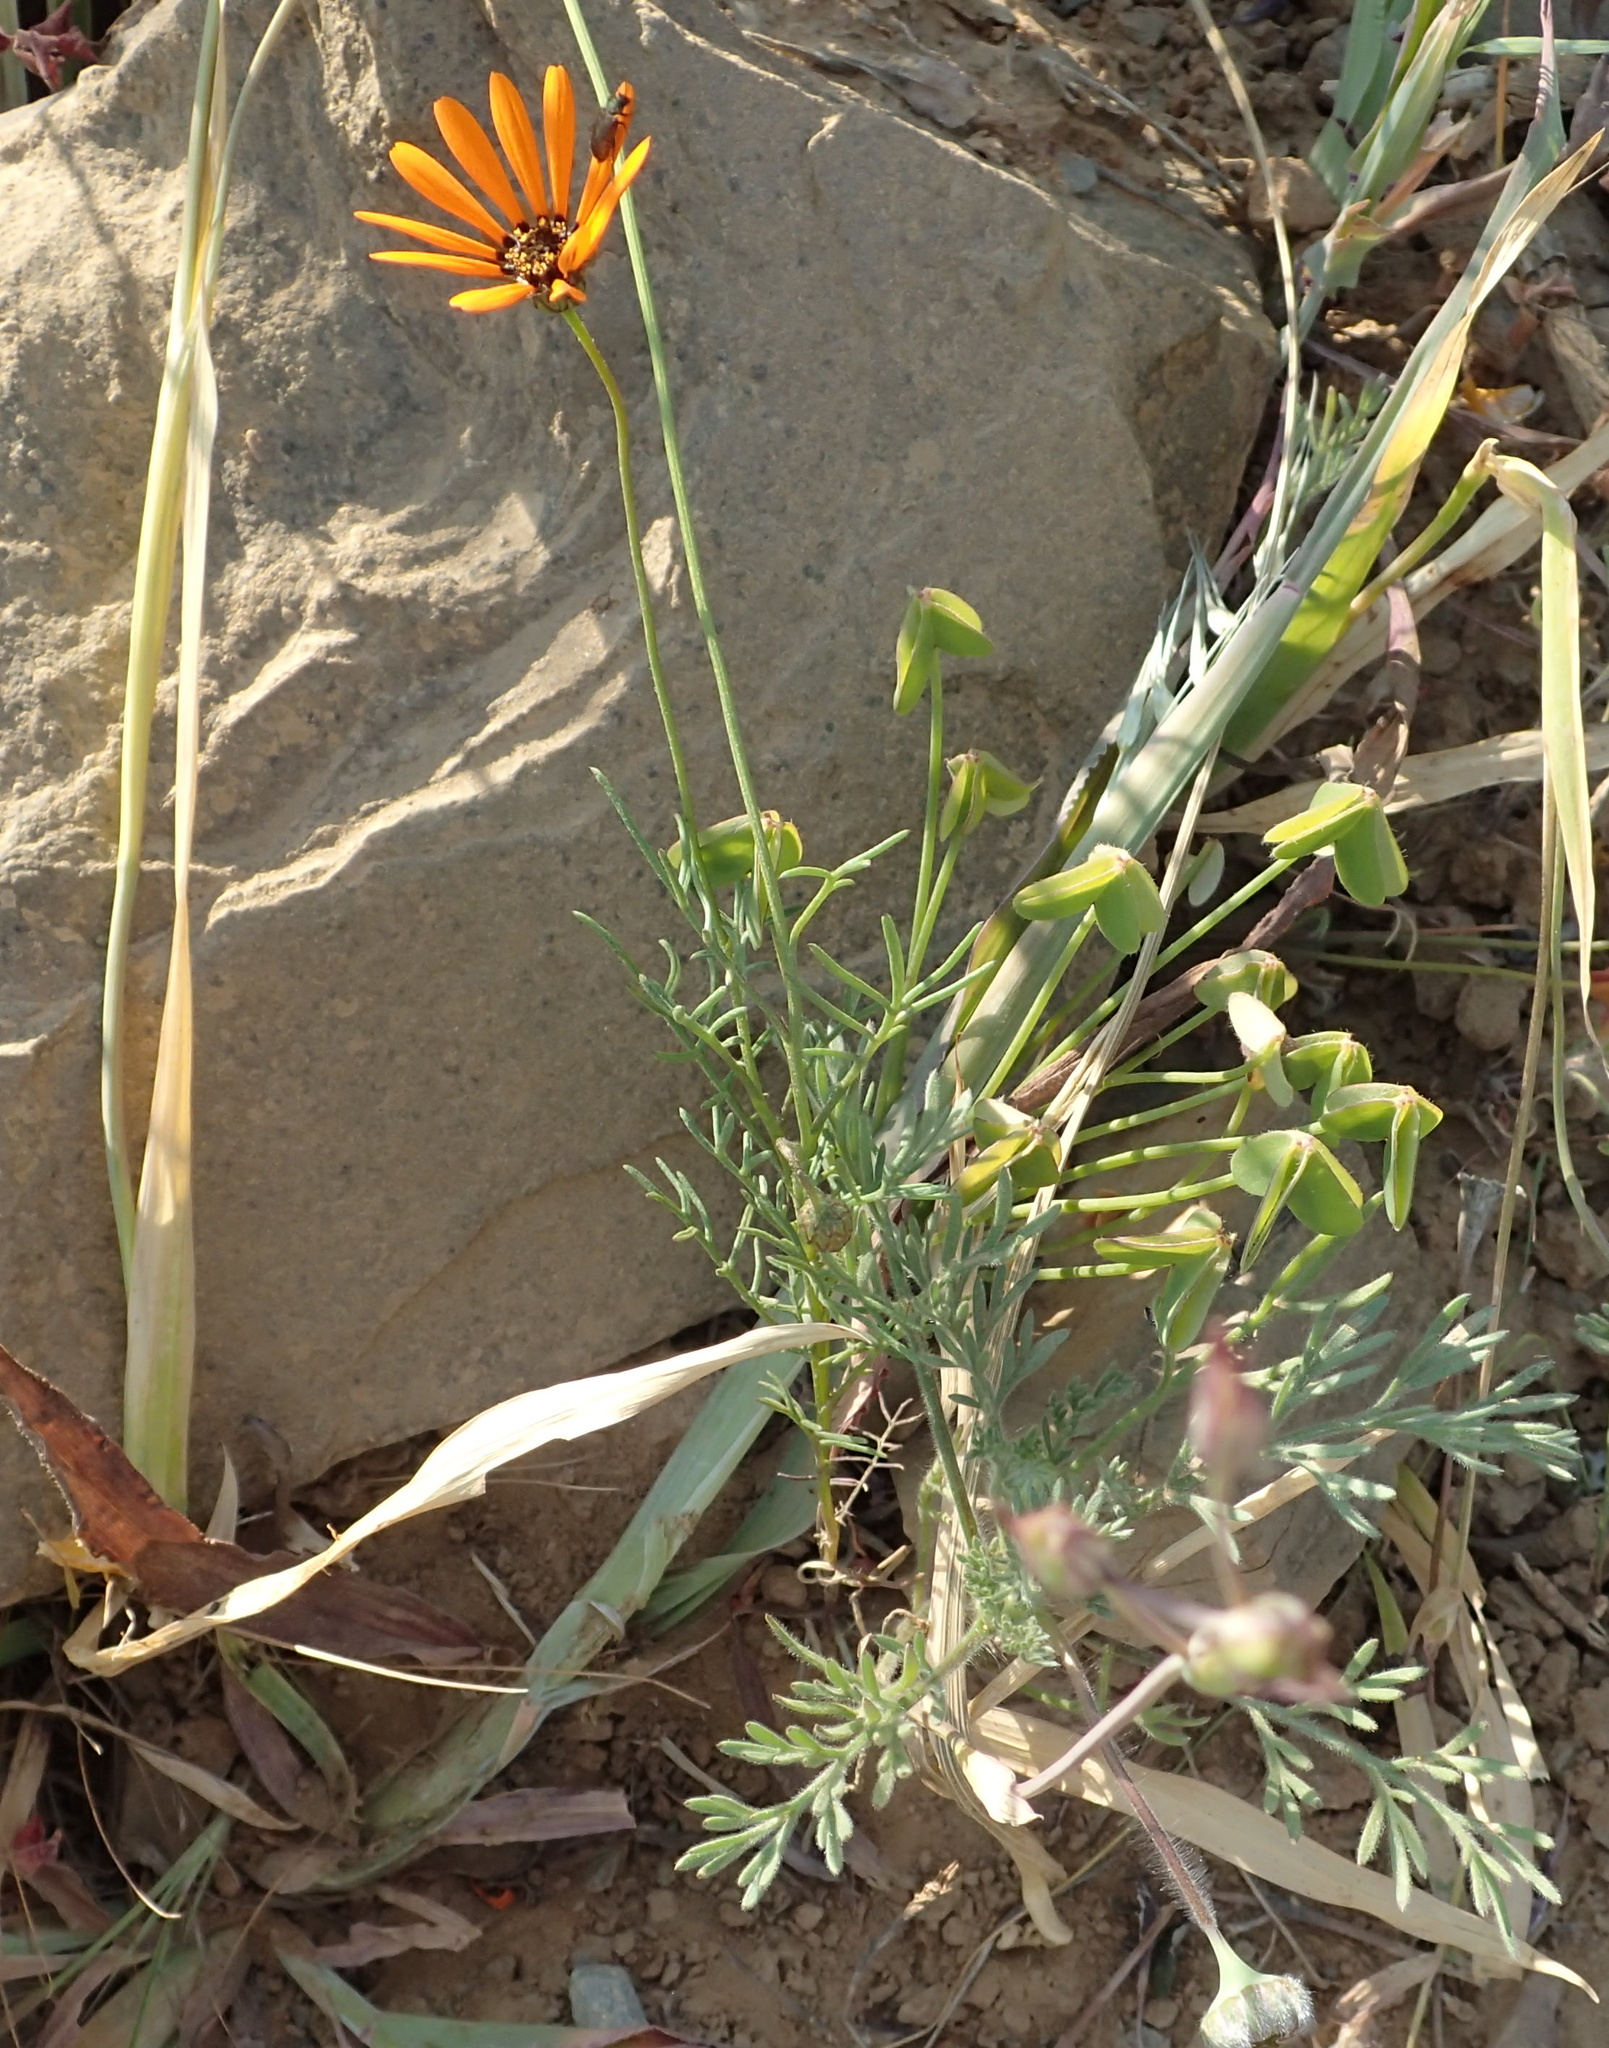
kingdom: Plantae
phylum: Tracheophyta
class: Magnoliopsida
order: Asterales
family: Asteraceae
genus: Ursinia
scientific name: Ursinia anthemoides
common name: Ursinia
